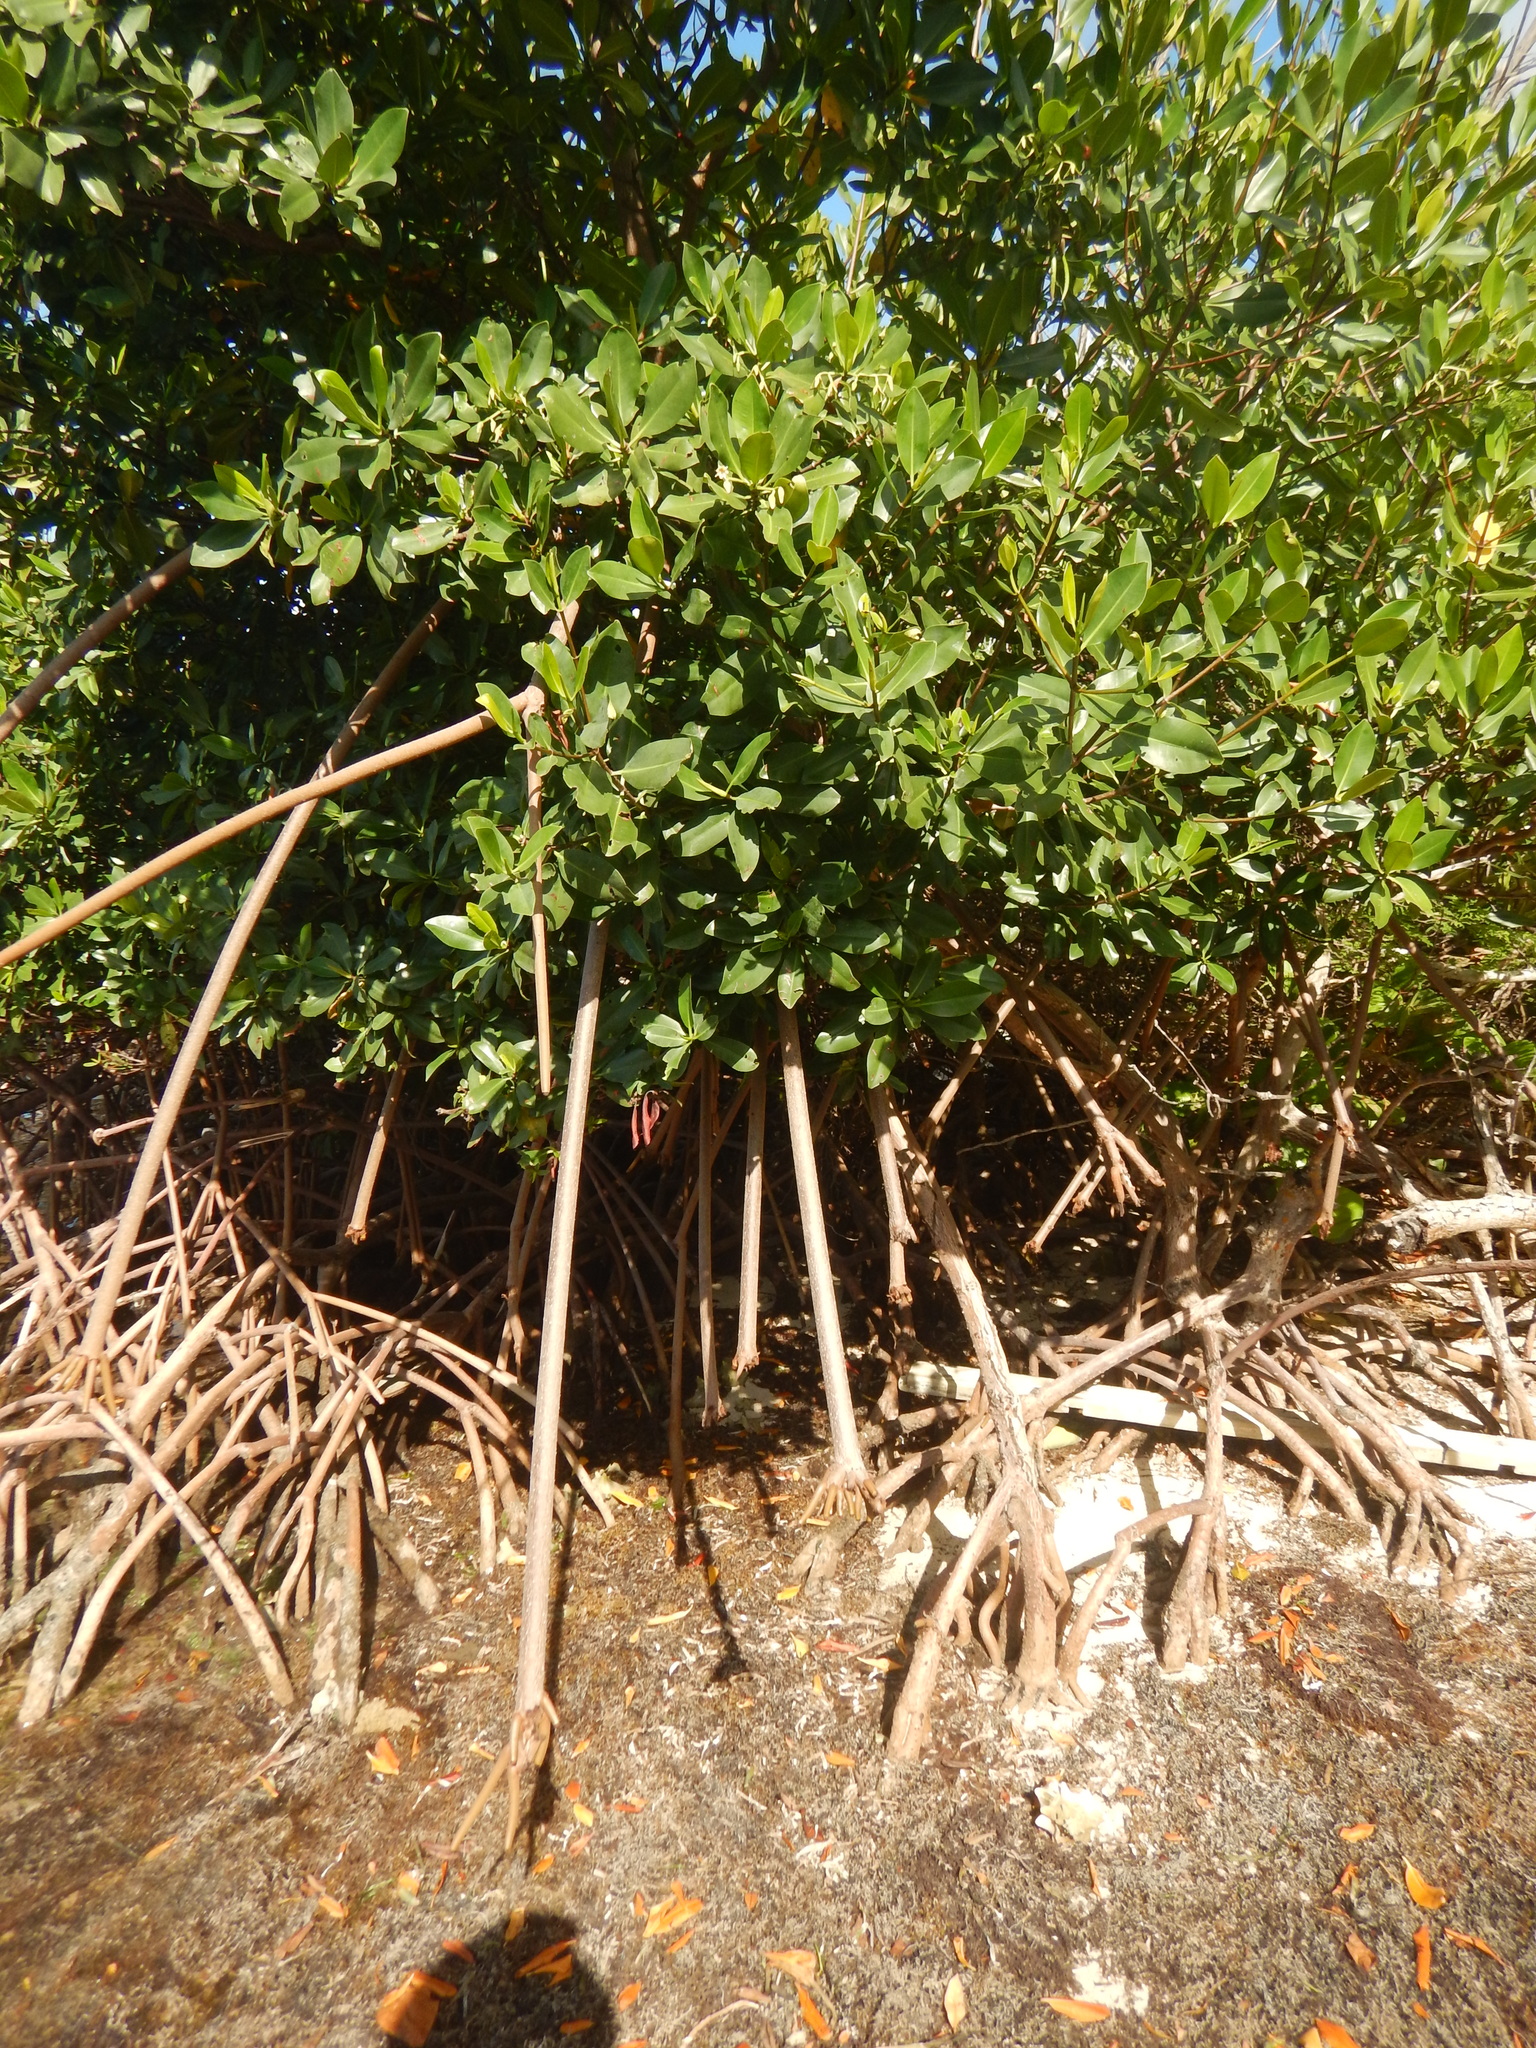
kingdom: Plantae
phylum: Tracheophyta
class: Magnoliopsida
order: Malpighiales
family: Rhizophoraceae
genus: Rhizophora
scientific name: Rhizophora mangle
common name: Red mangrove
